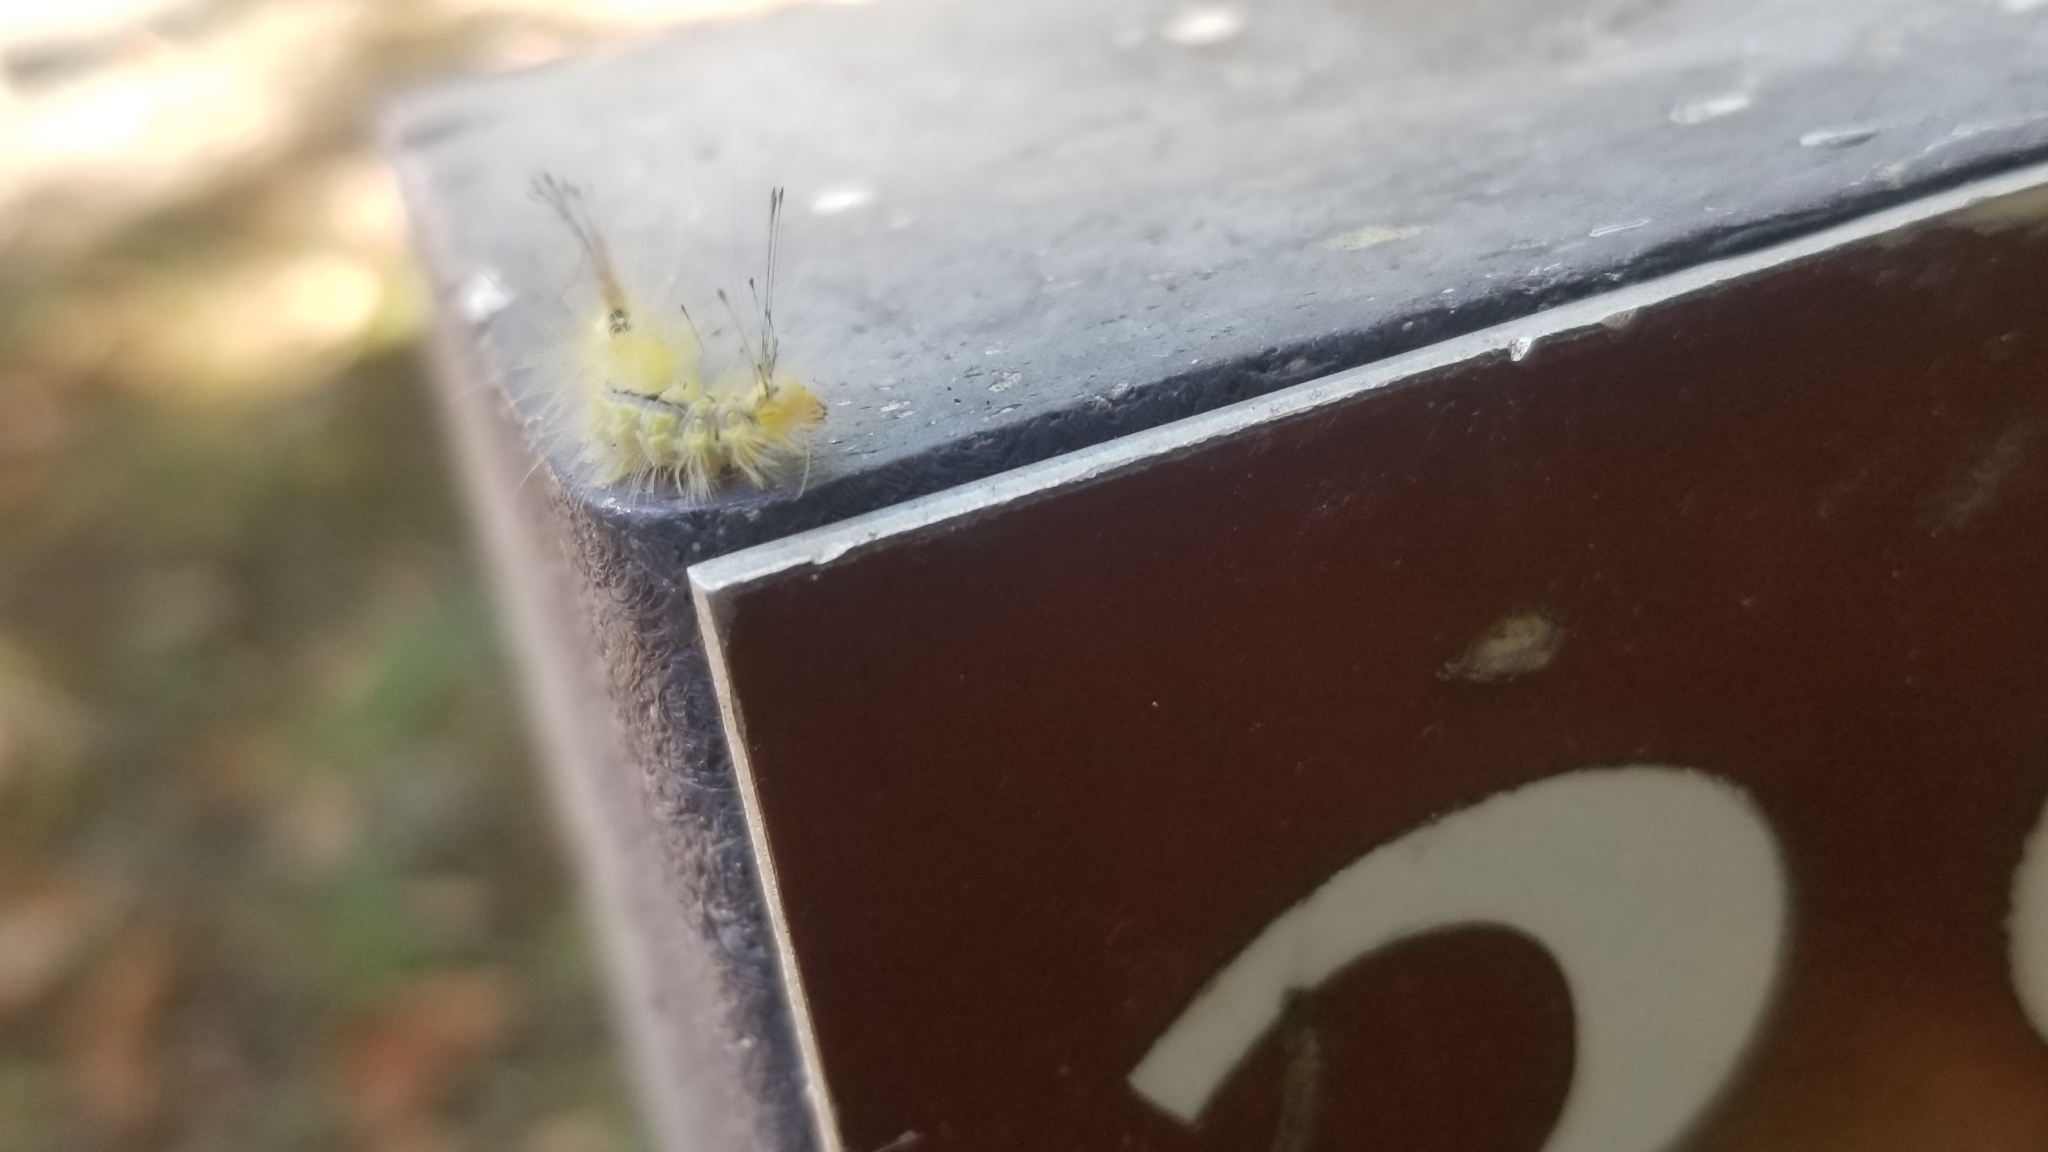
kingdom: Animalia
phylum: Arthropoda
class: Insecta
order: Lepidoptera
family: Erebidae
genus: Orgyia
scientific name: Orgyia definita
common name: Definite tussock moth
